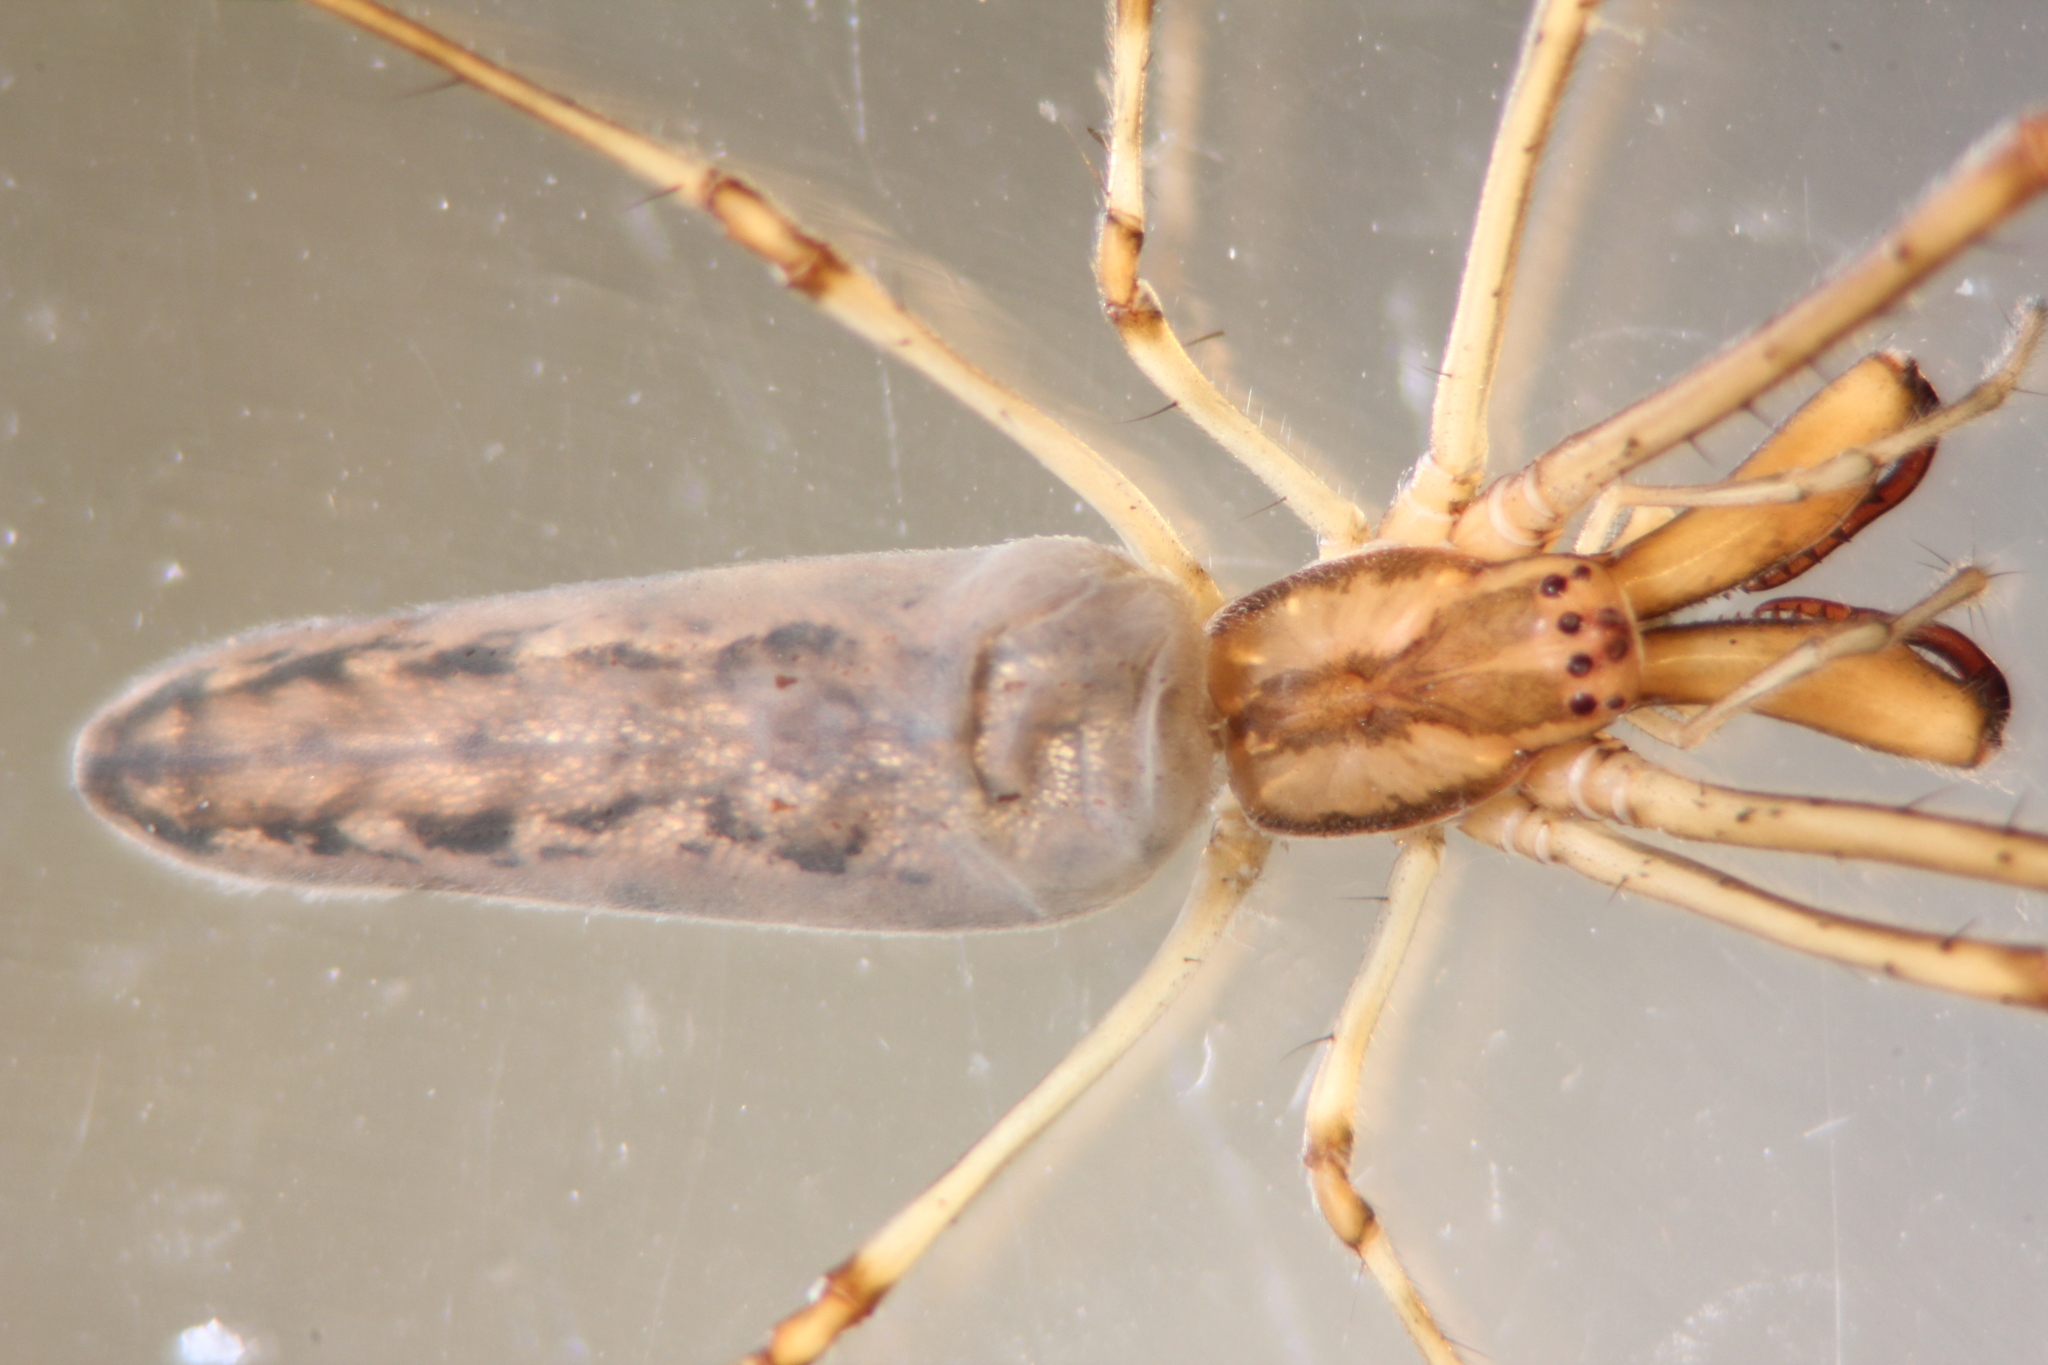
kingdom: Animalia
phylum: Arthropoda
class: Arachnida
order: Araneae
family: Tetragnathidae
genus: Tetragnatha
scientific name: Tetragnatha mandibulata
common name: Common big-jawed spider
